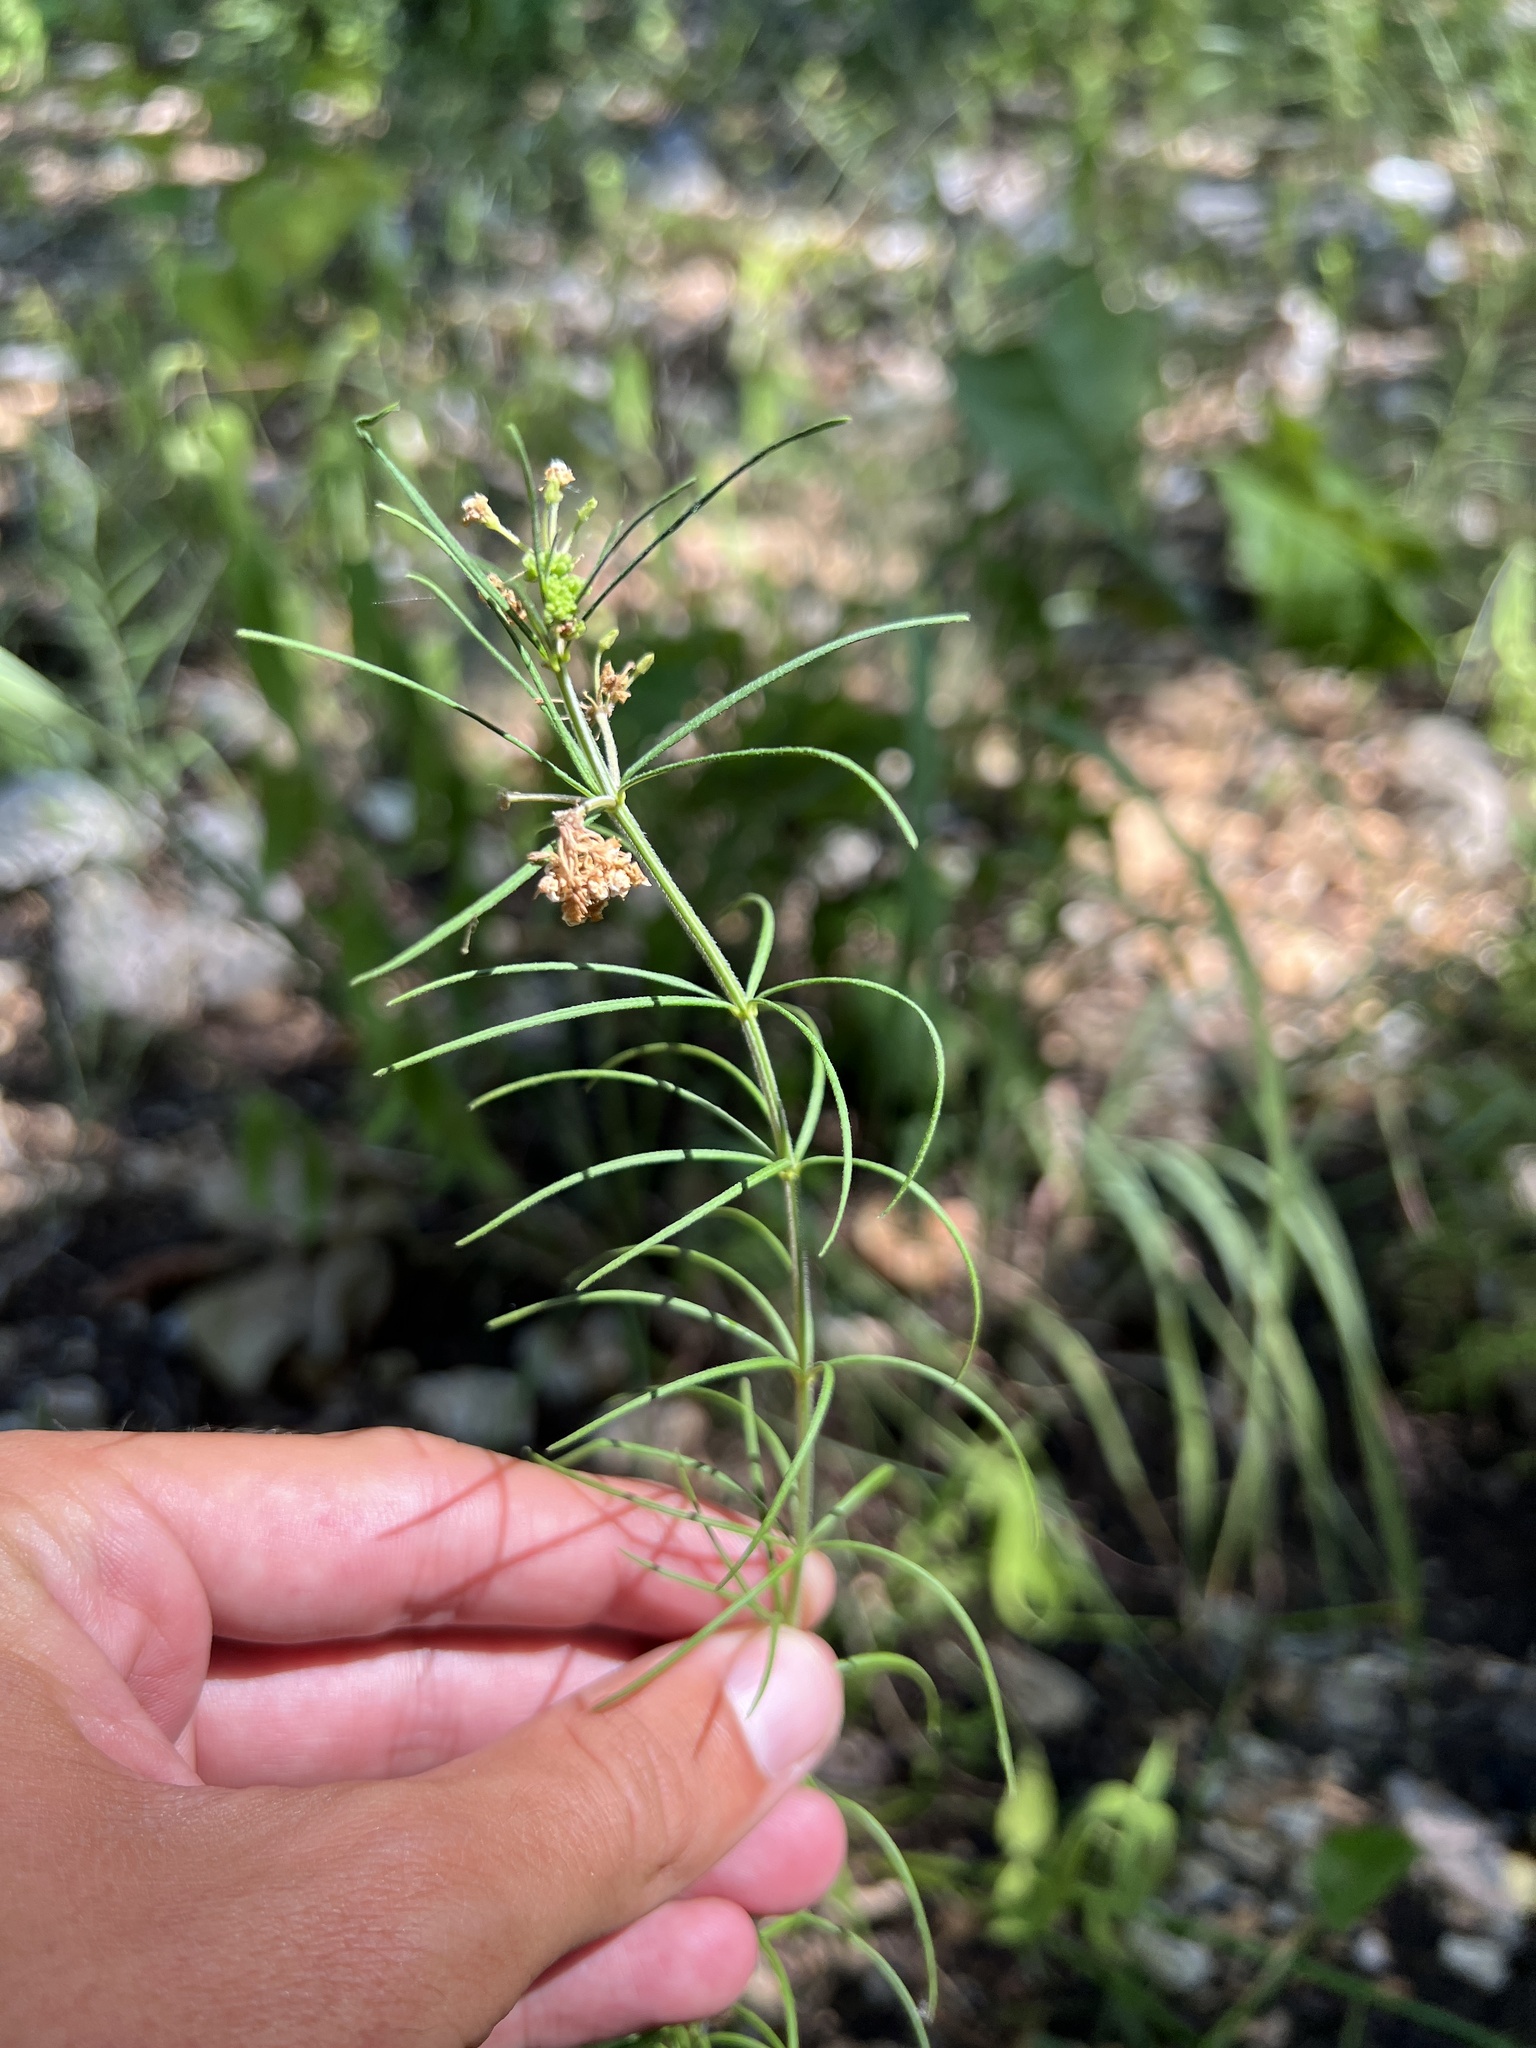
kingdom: Plantae
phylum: Tracheophyta
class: Magnoliopsida
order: Gentianales
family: Apocynaceae
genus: Asclepias
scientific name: Asclepias verticillata
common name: Eastern whorled milkweed
